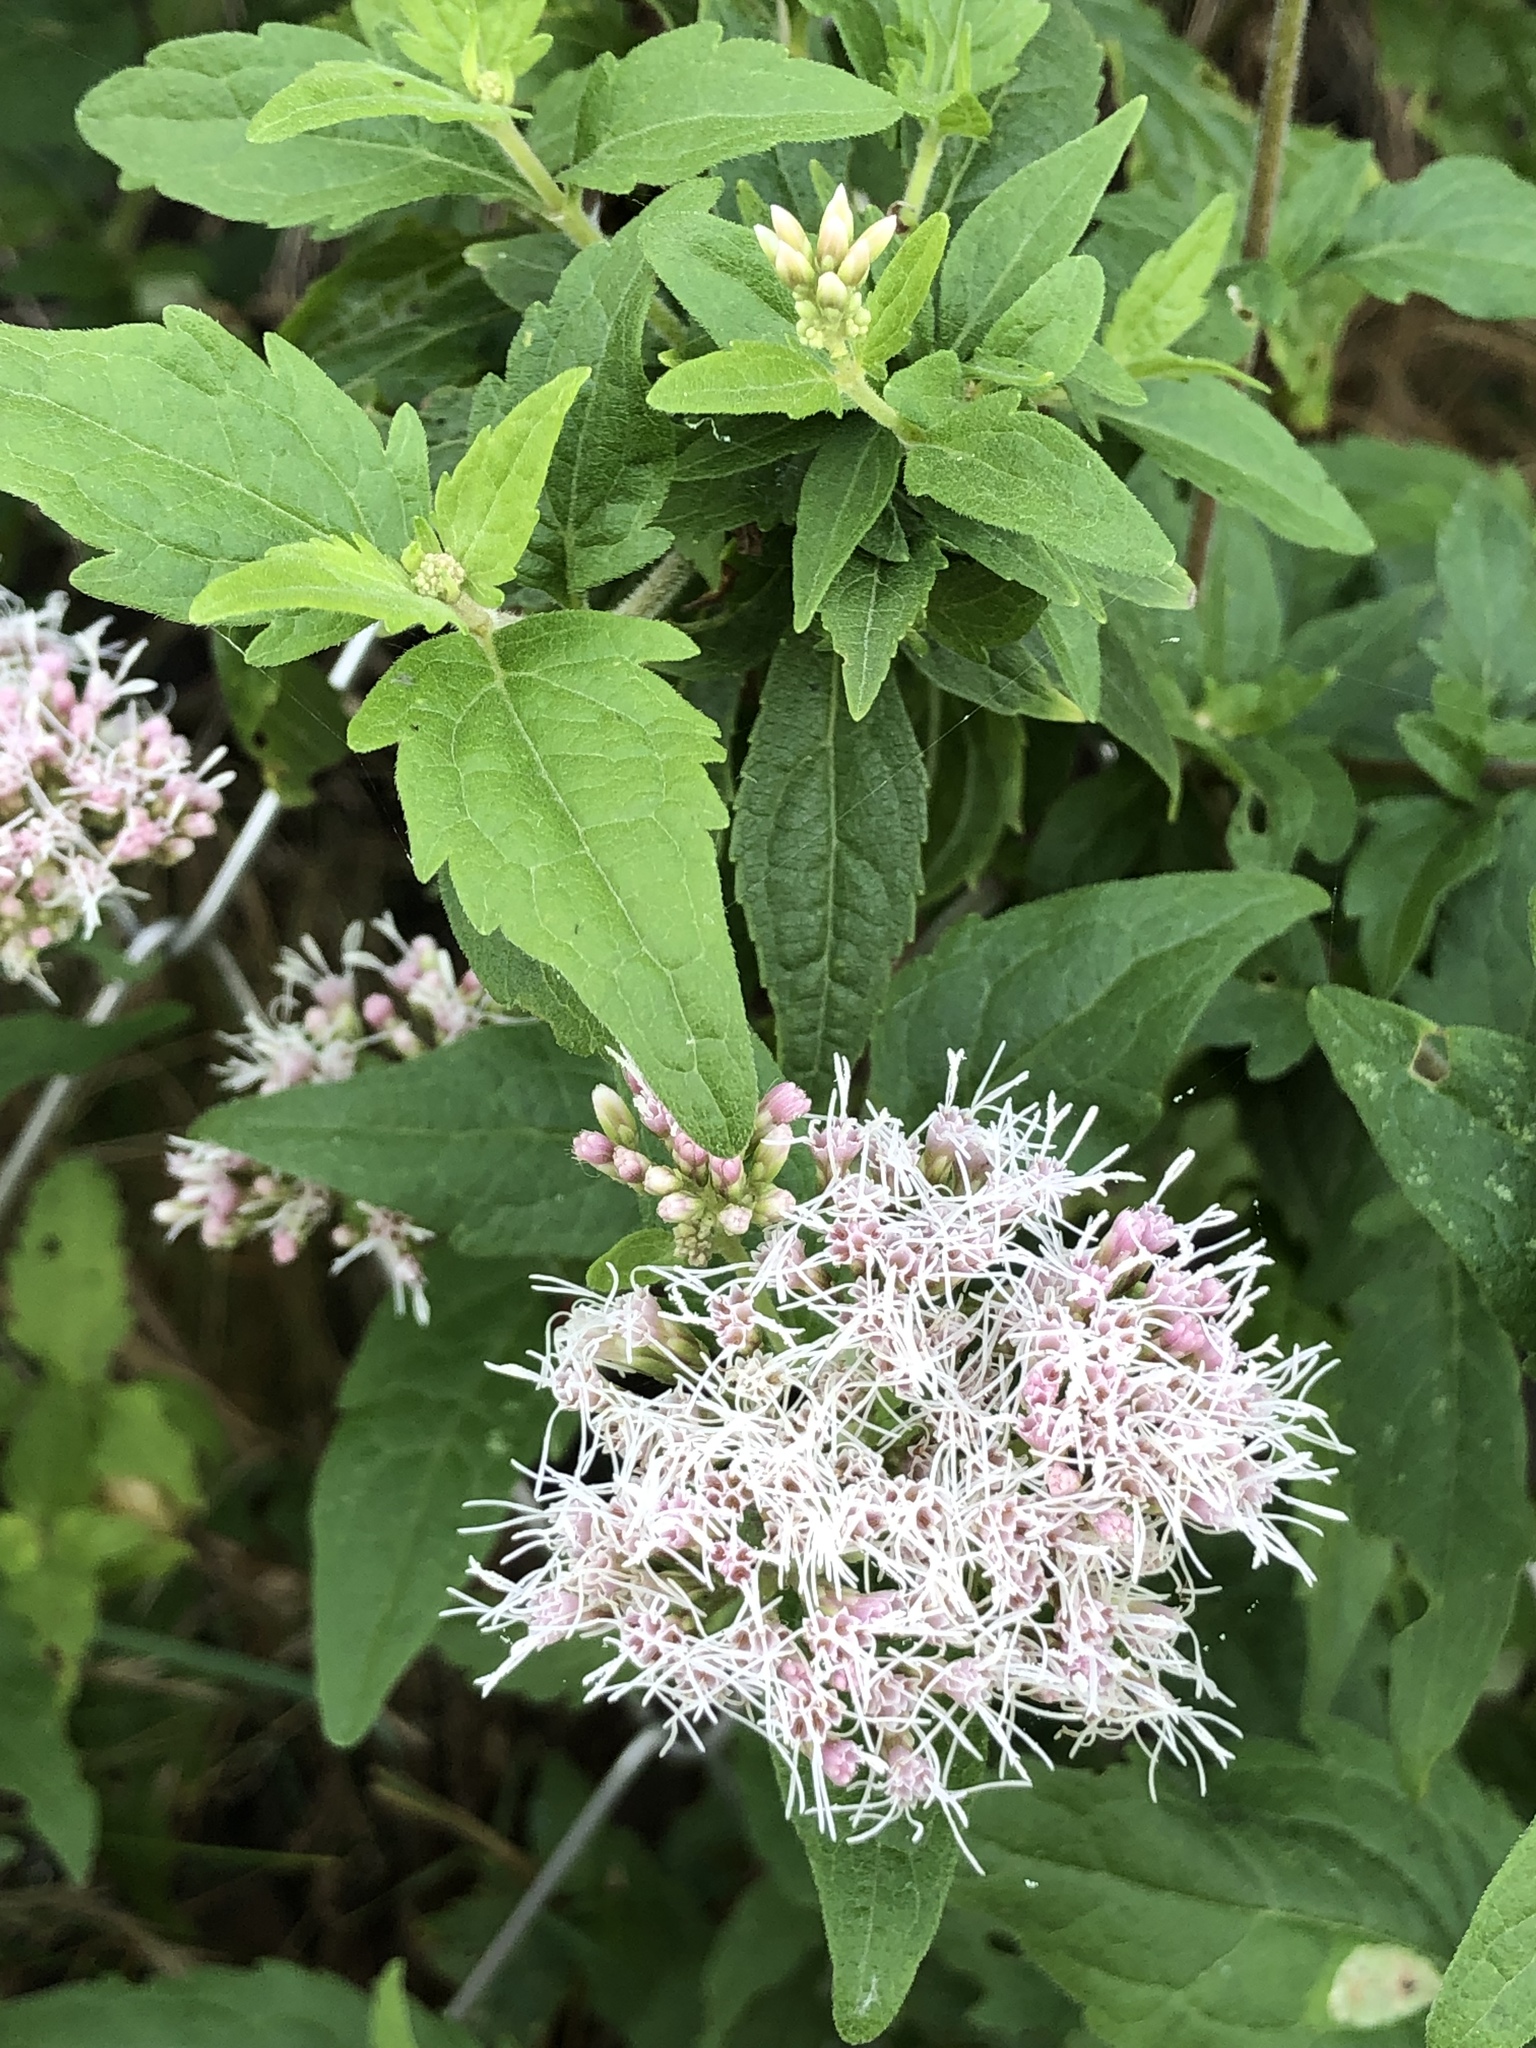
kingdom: Plantae
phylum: Tracheophyta
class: Magnoliopsida
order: Asterales
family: Asteraceae
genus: Eupatorium
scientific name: Eupatorium cannabinum
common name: Hemp-agrimony
